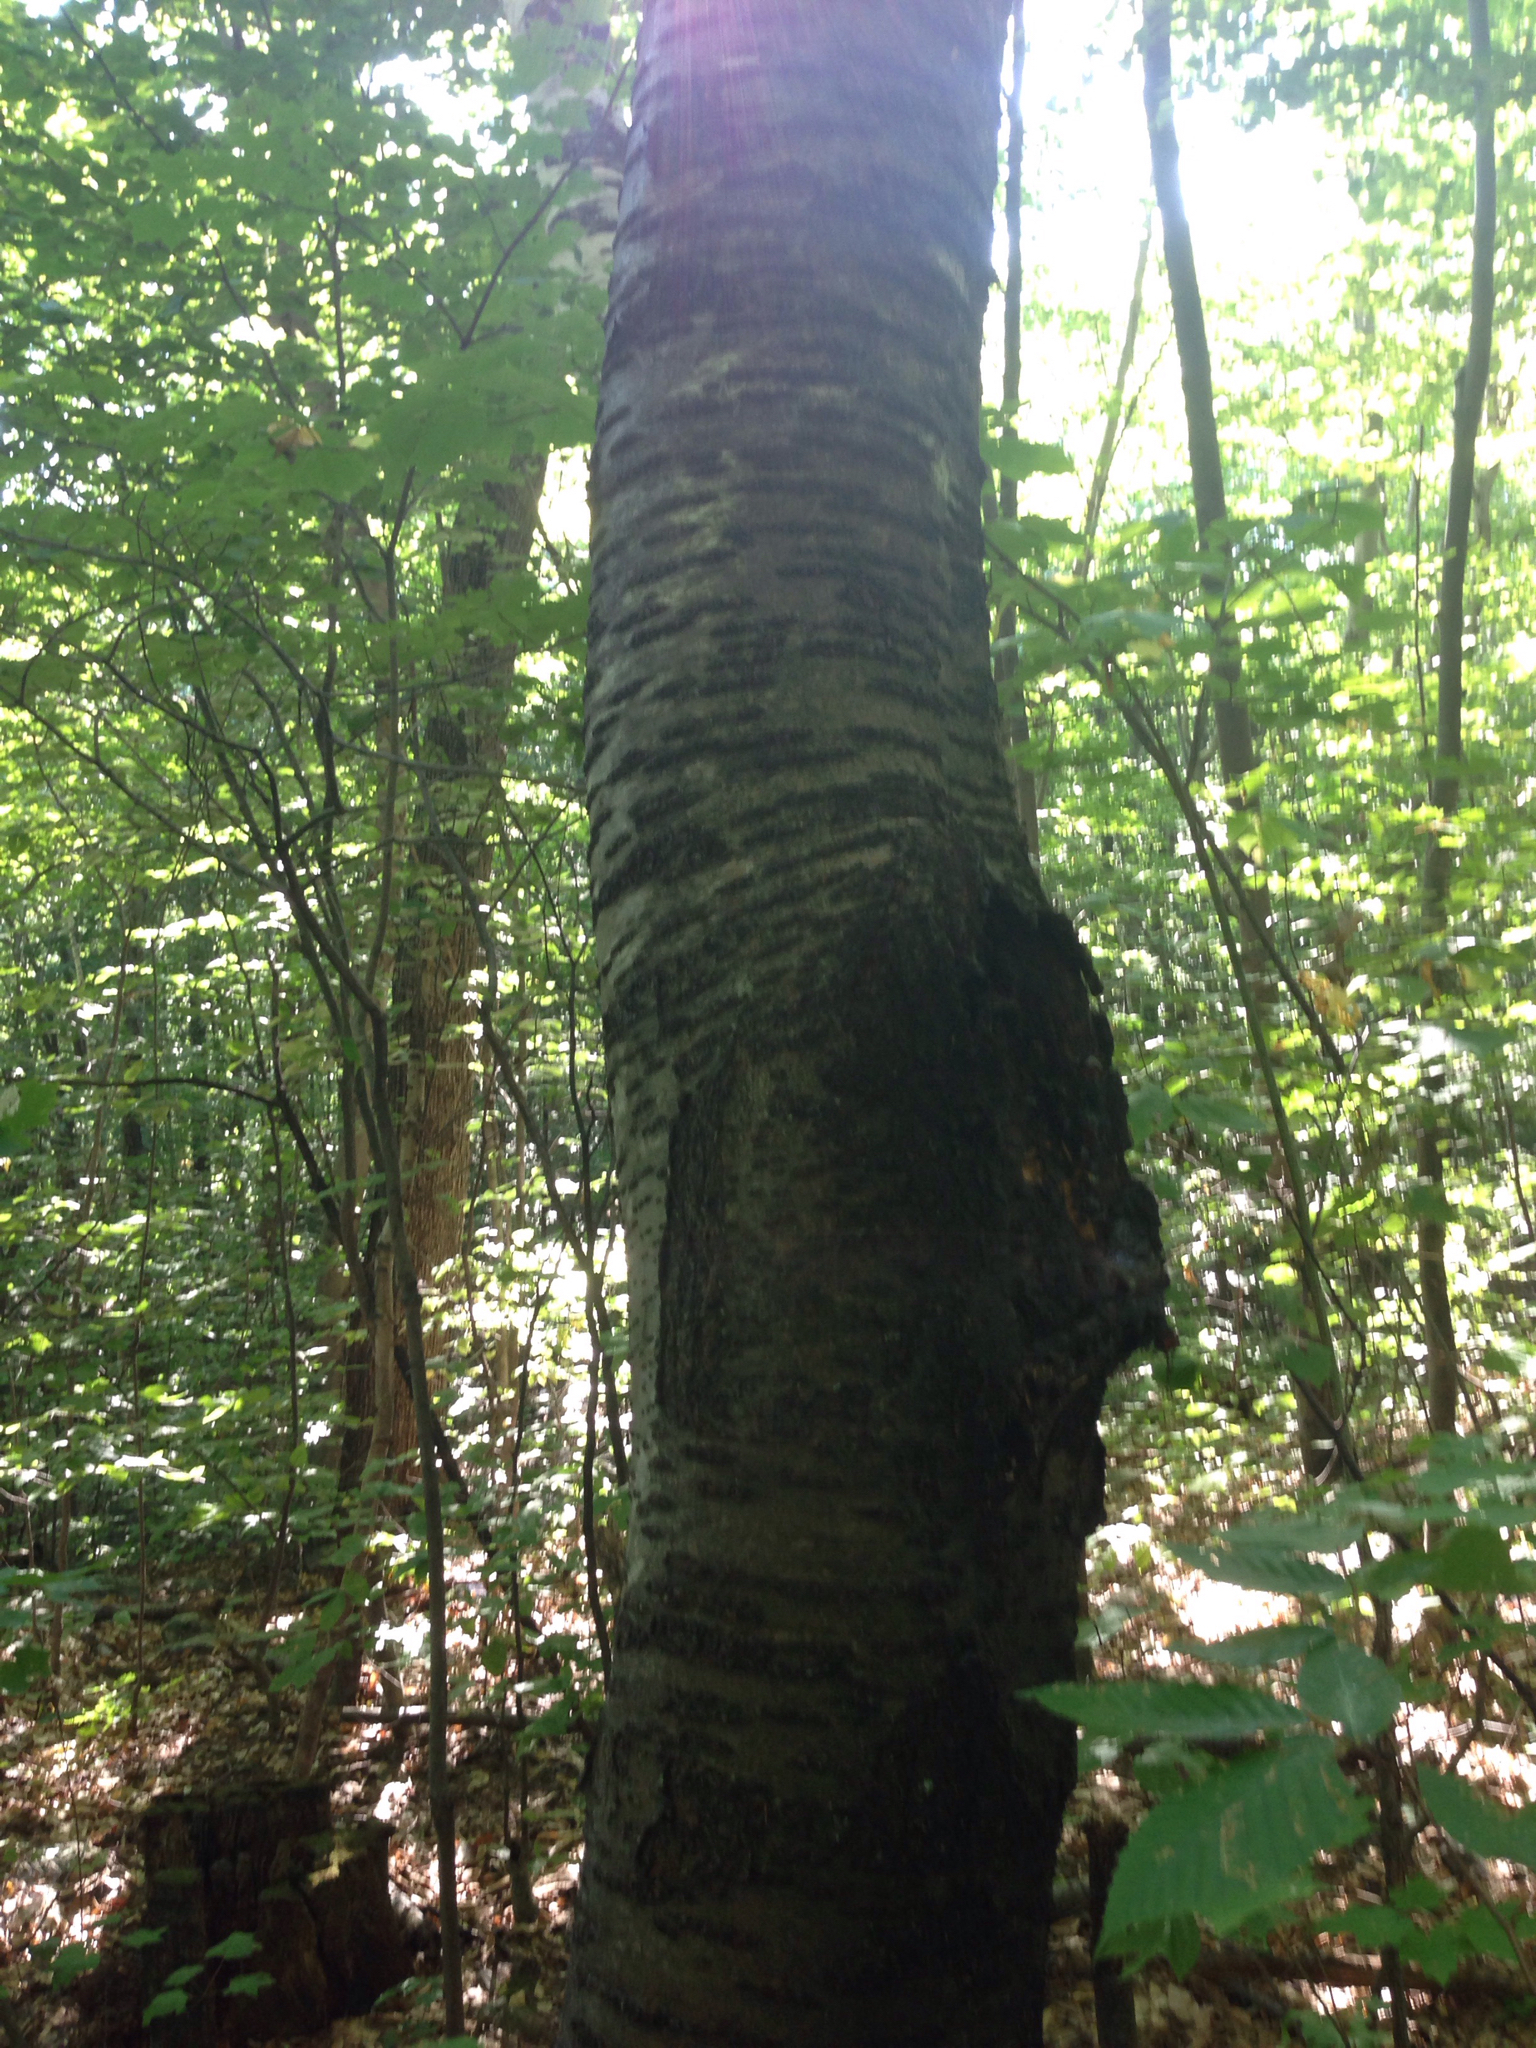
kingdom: Plantae
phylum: Tracheophyta
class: Magnoliopsida
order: Rosales
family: Rosaceae
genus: Prunus
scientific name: Prunus pensylvanica
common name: Pin cherry
